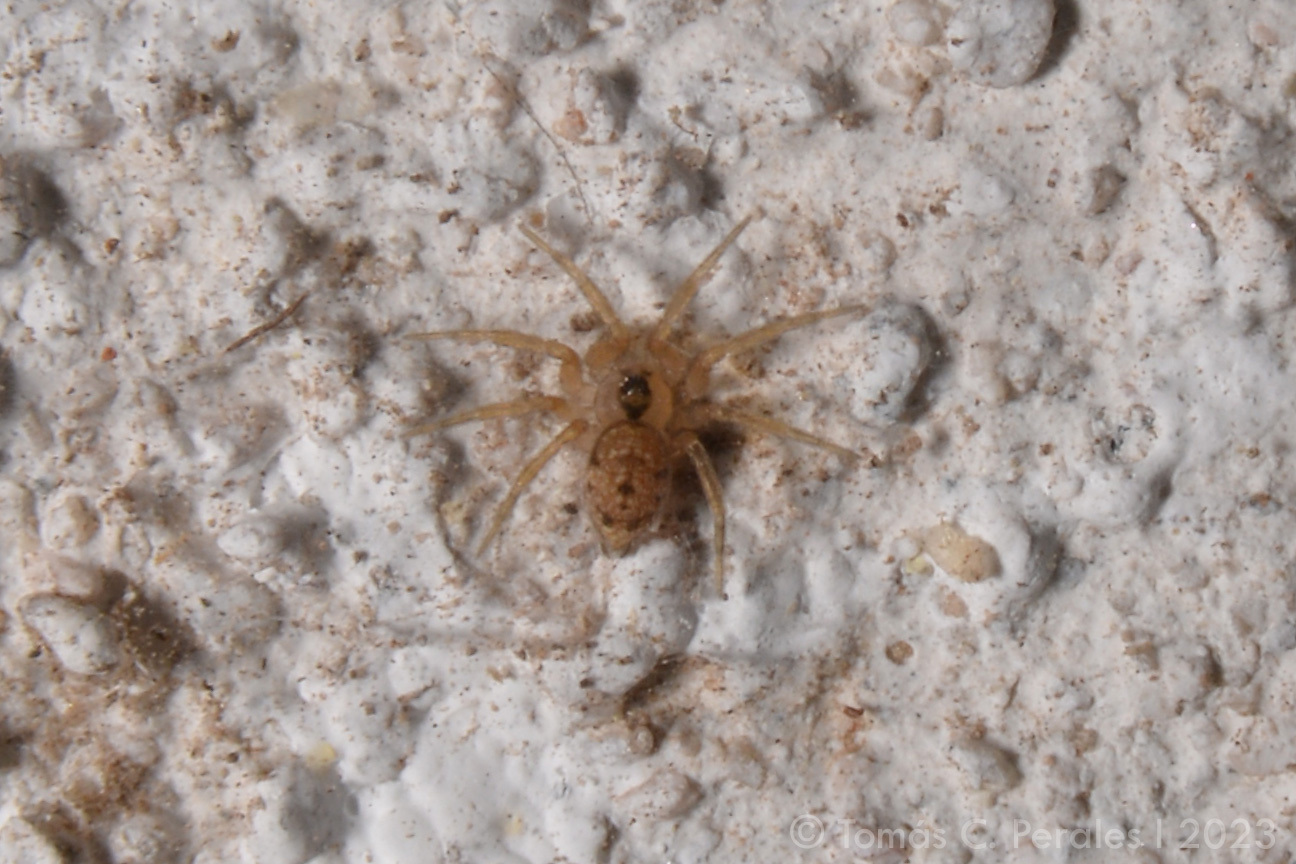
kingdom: Animalia
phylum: Arthropoda
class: Arachnida
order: Araneae
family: Oecobiidae
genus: Oecobius
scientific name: Oecobius navus
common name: Flatmesh weaver
